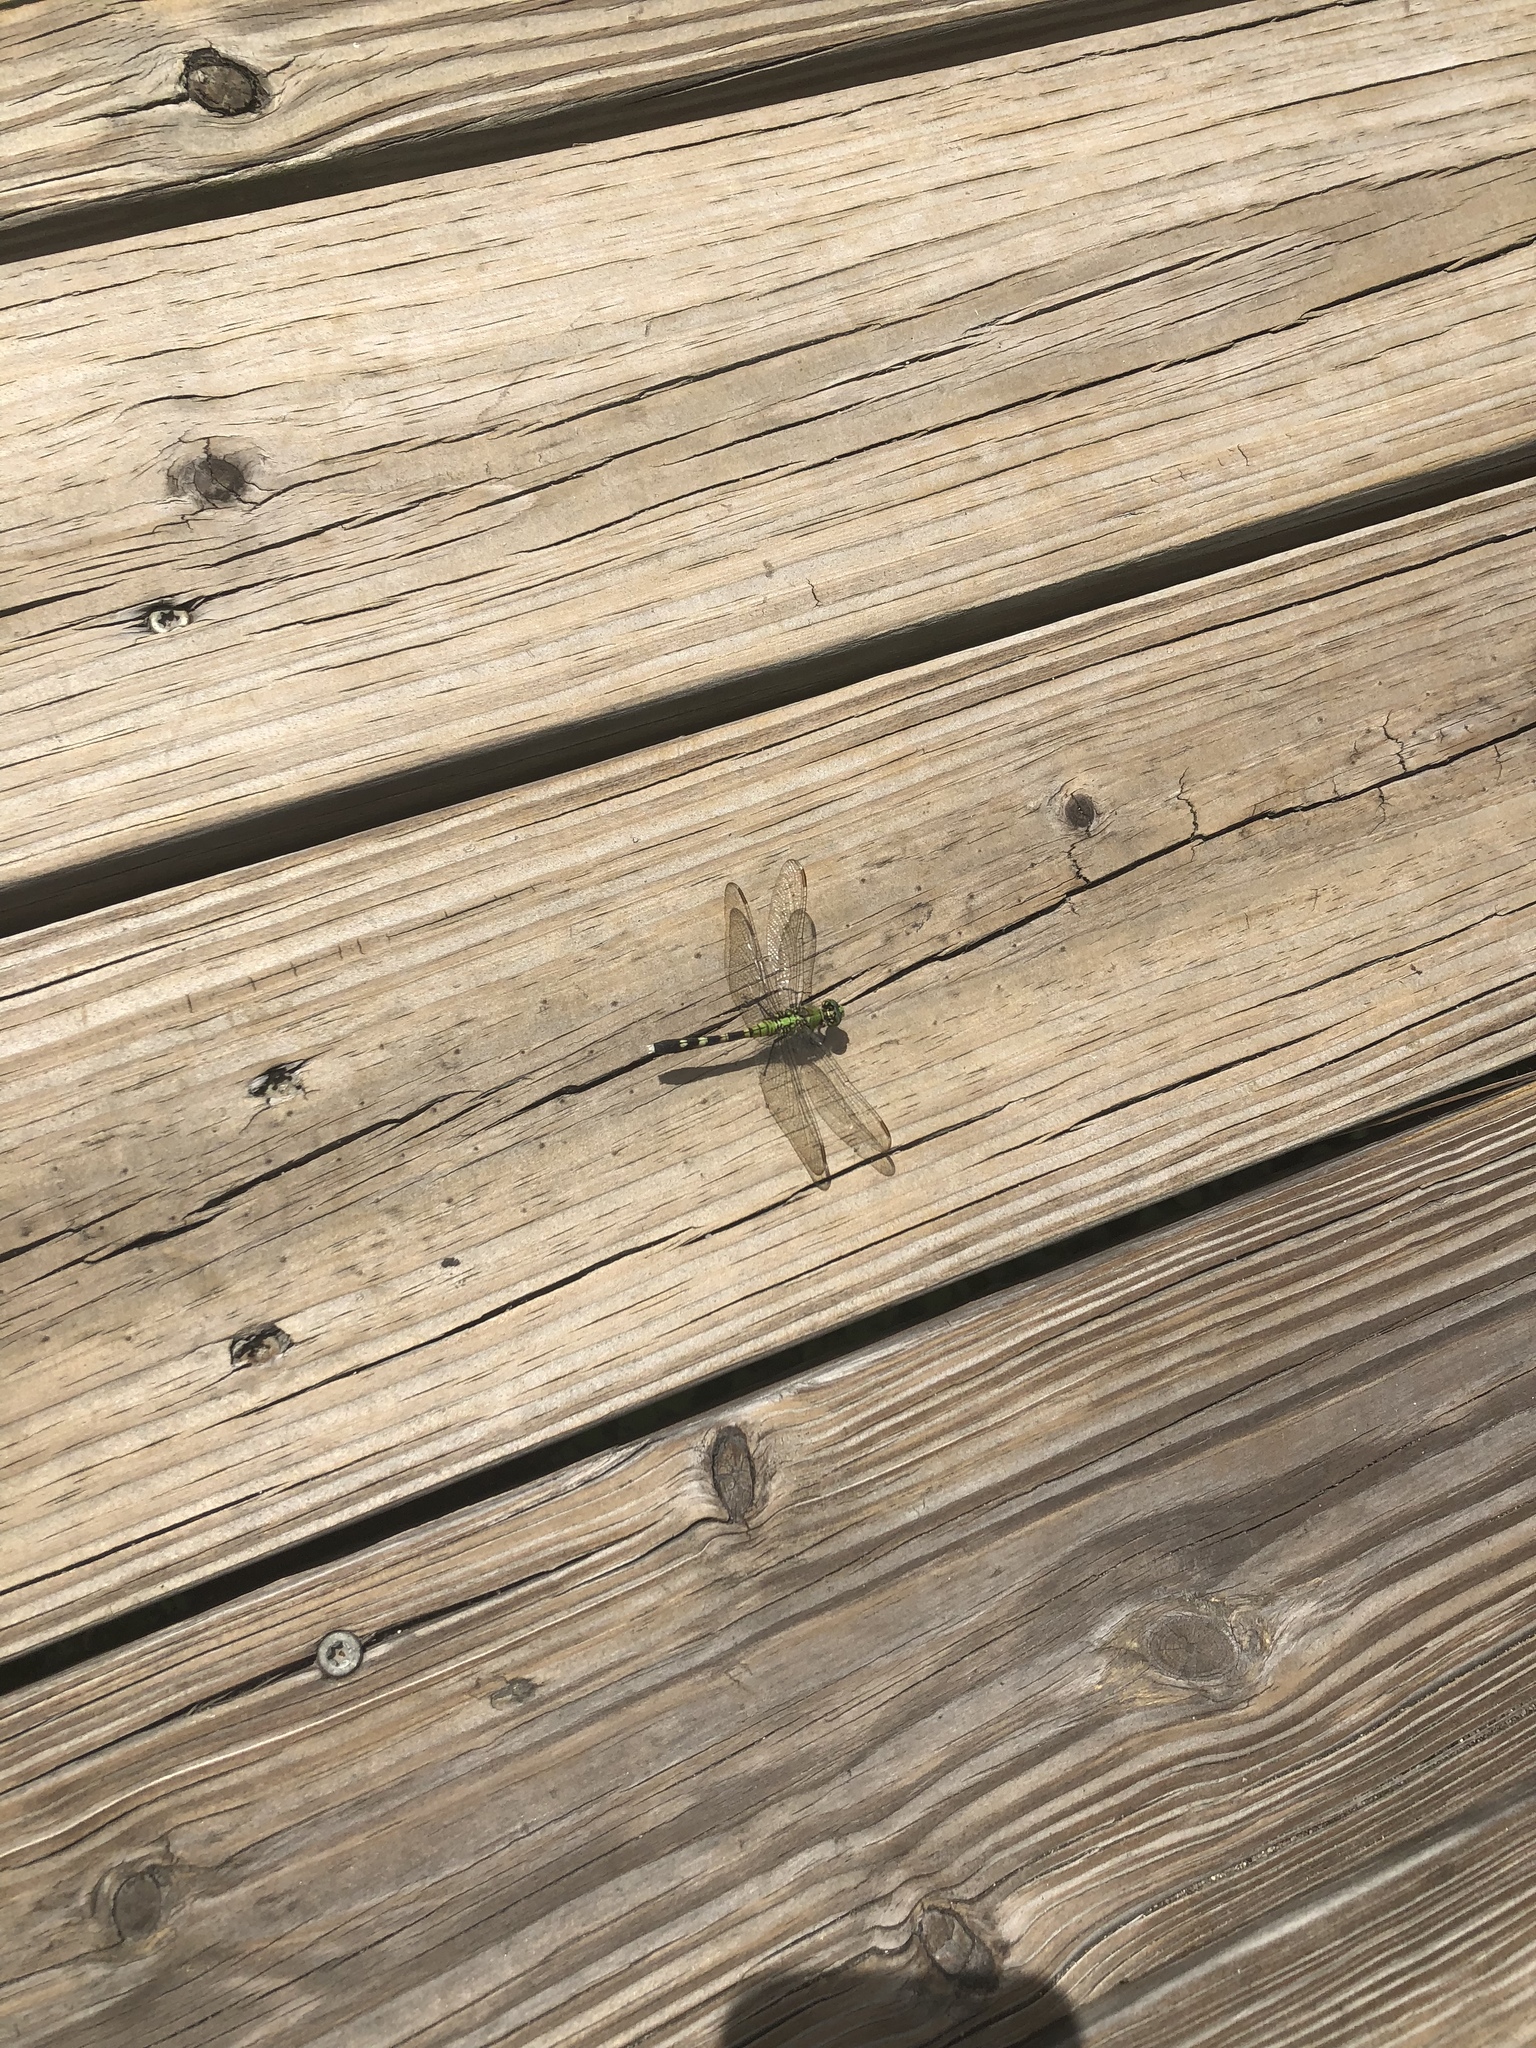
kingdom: Animalia
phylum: Arthropoda
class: Insecta
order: Odonata
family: Libellulidae
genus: Erythemis
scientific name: Erythemis simplicicollis
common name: Eastern pondhawk
